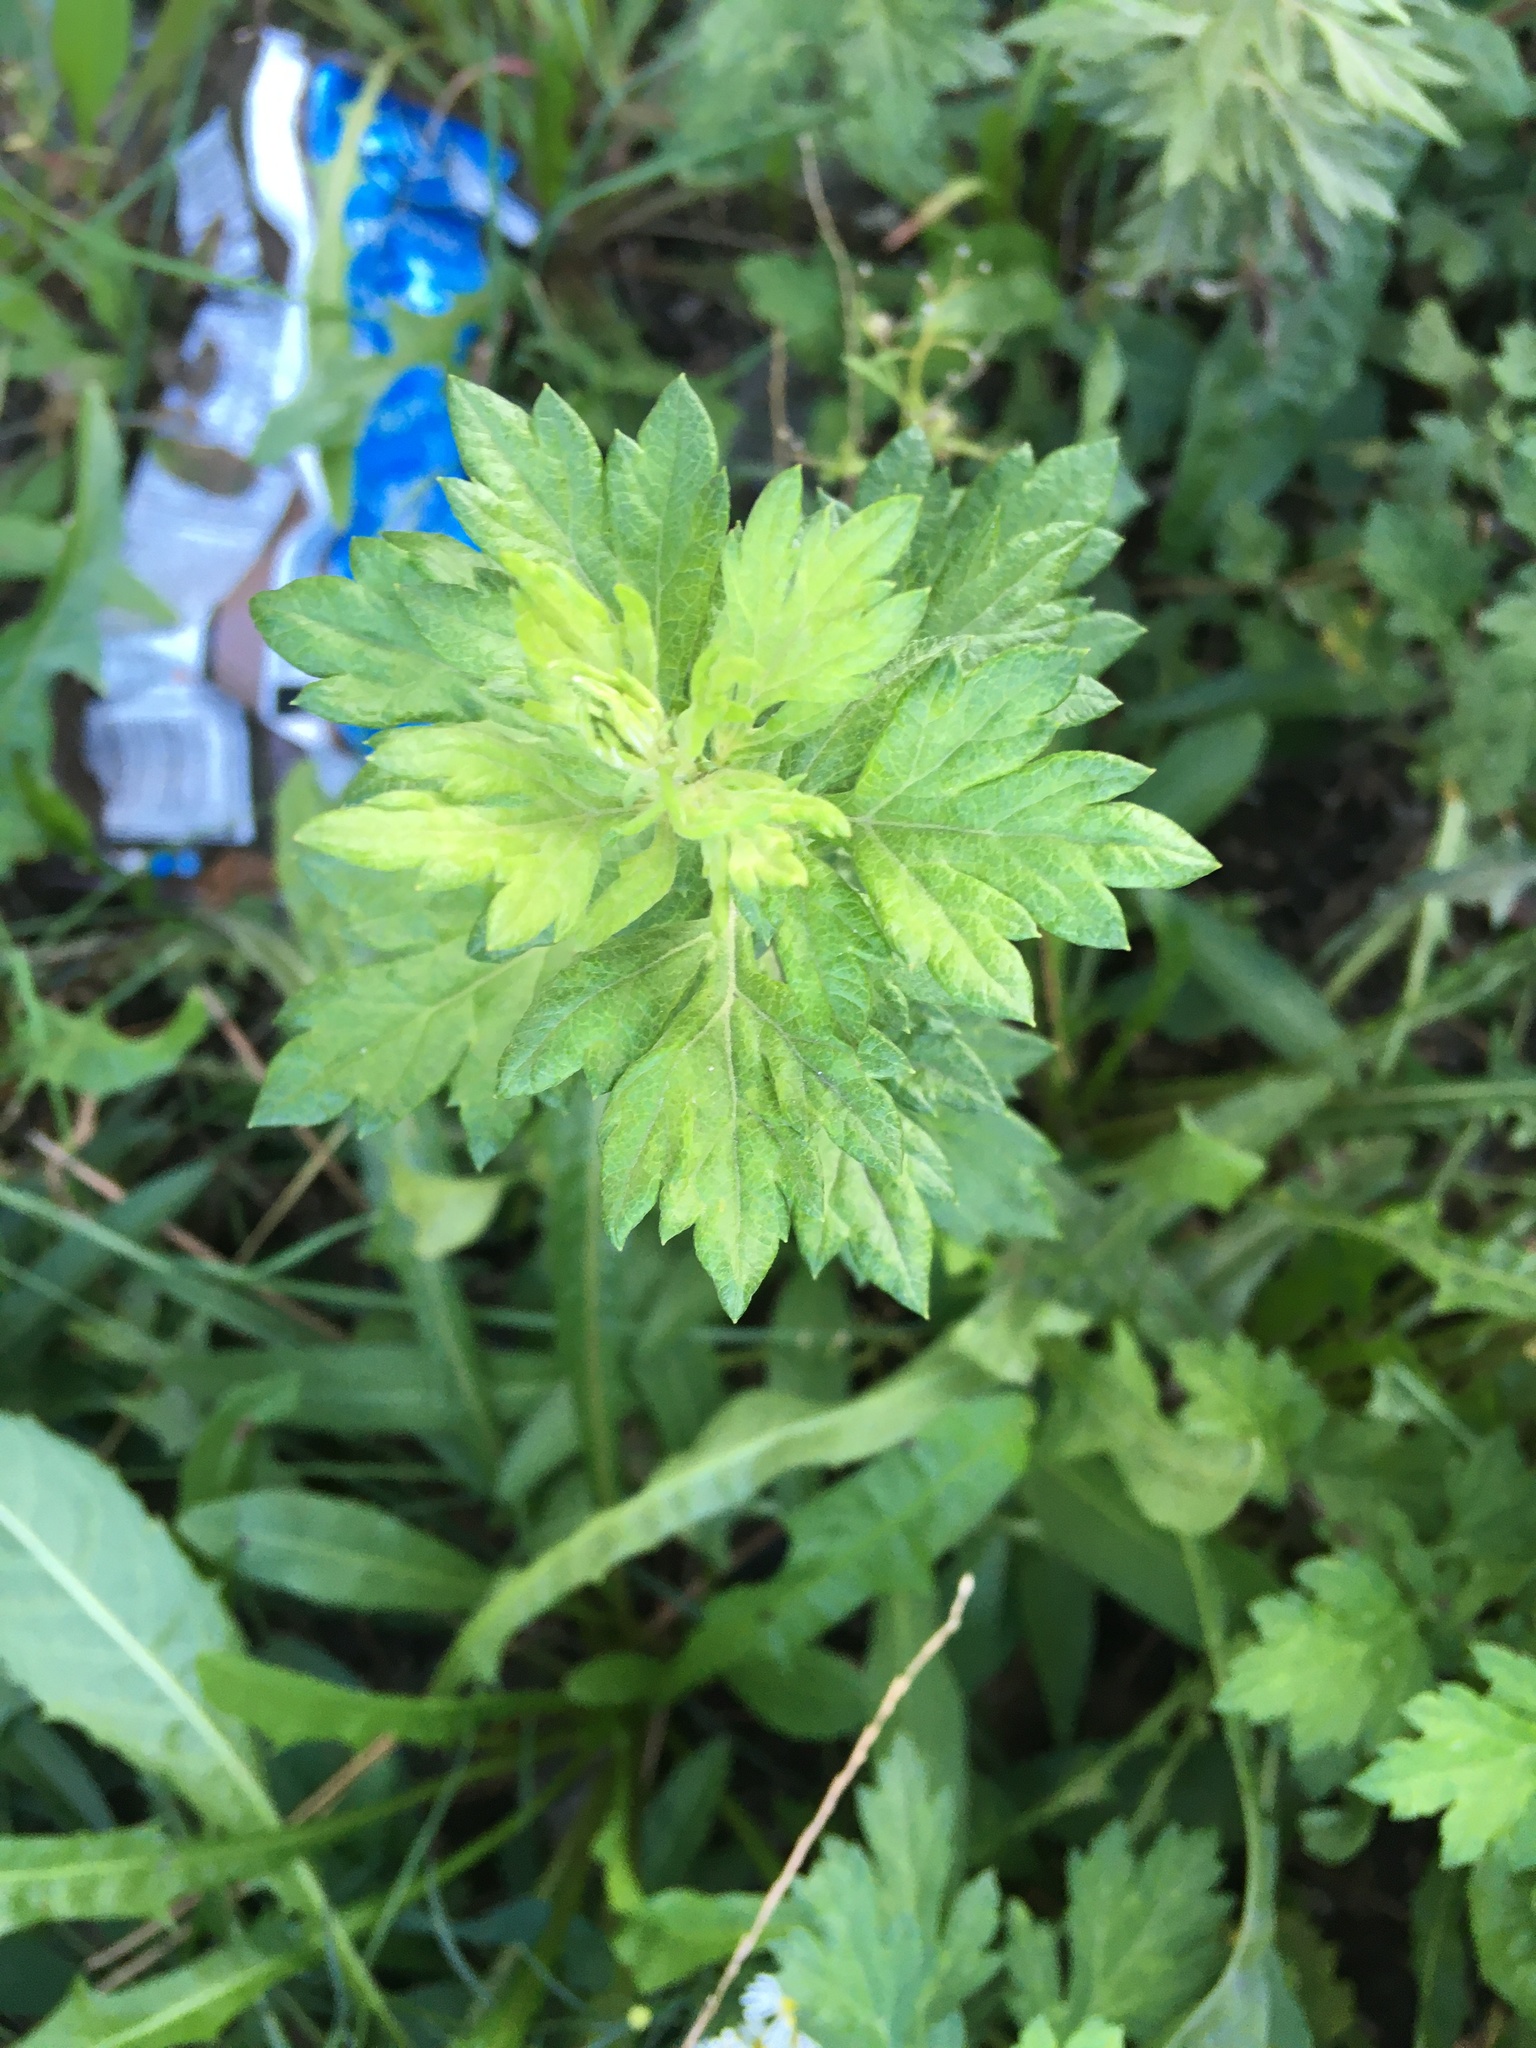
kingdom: Plantae
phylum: Tracheophyta
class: Magnoliopsida
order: Asterales
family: Asteraceae
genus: Artemisia
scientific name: Artemisia vulgaris
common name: Mugwort
